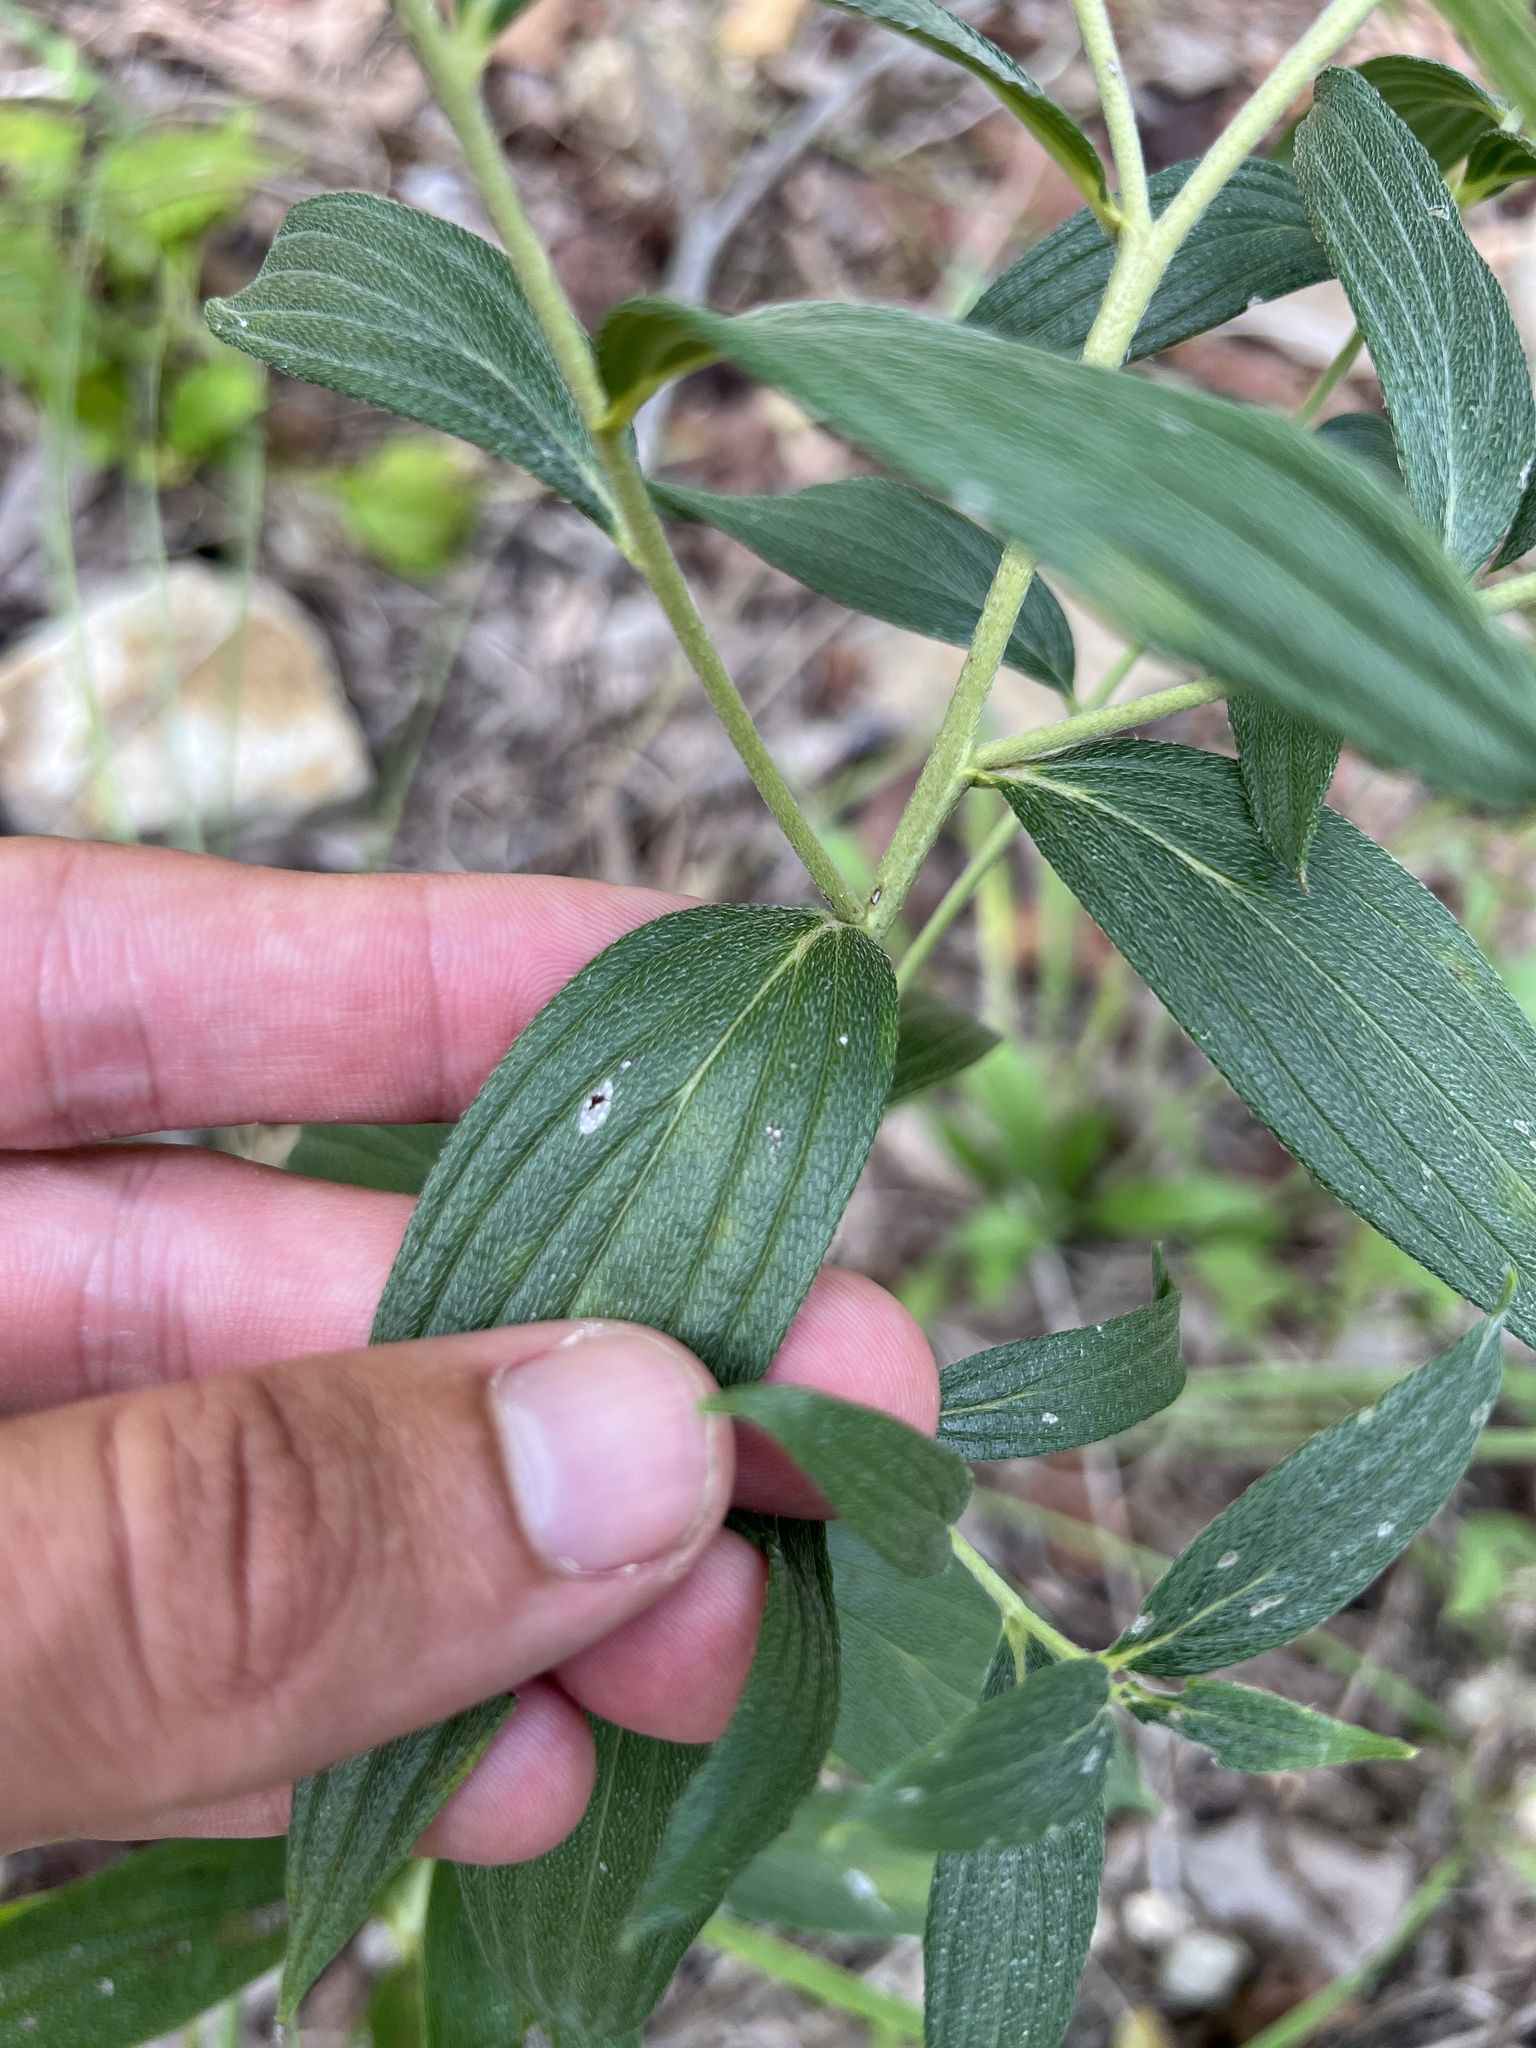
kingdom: Plantae
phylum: Tracheophyta
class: Magnoliopsida
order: Boraginales
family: Boraginaceae
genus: Lithospermum
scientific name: Lithospermum subsetosum
